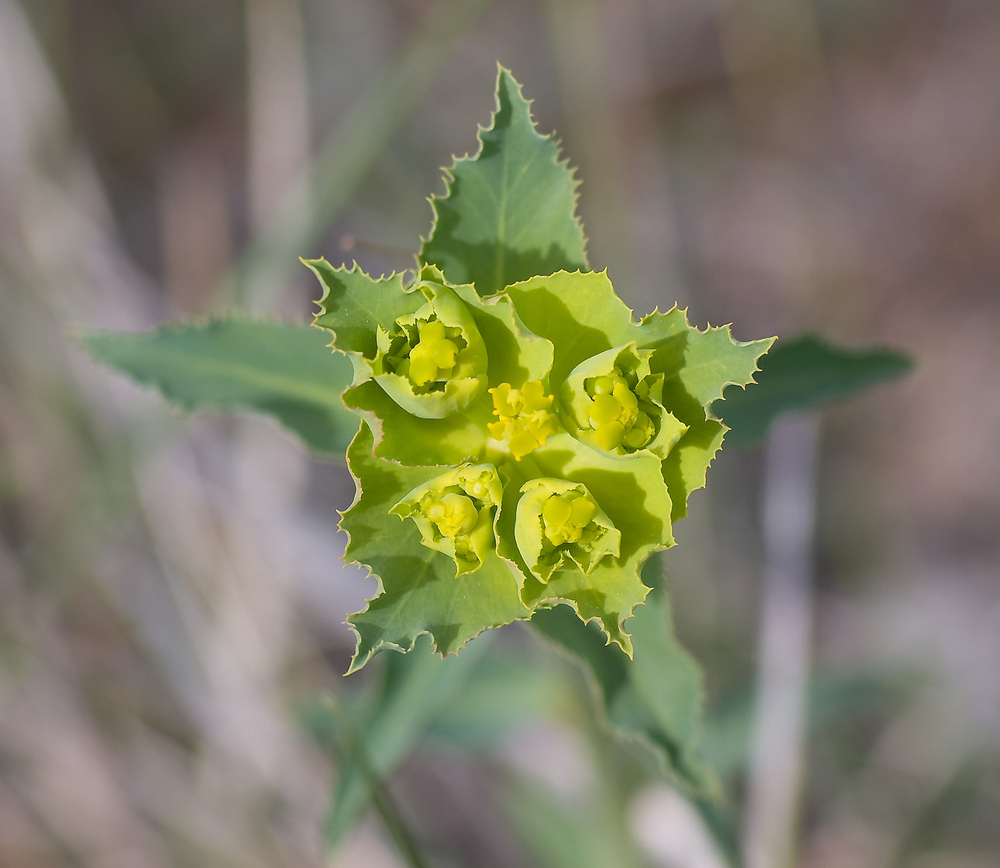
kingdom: Plantae
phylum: Tracheophyta
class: Magnoliopsida
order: Malpighiales
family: Euphorbiaceae
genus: Euphorbia
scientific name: Euphorbia serrata
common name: Serrate spurge
